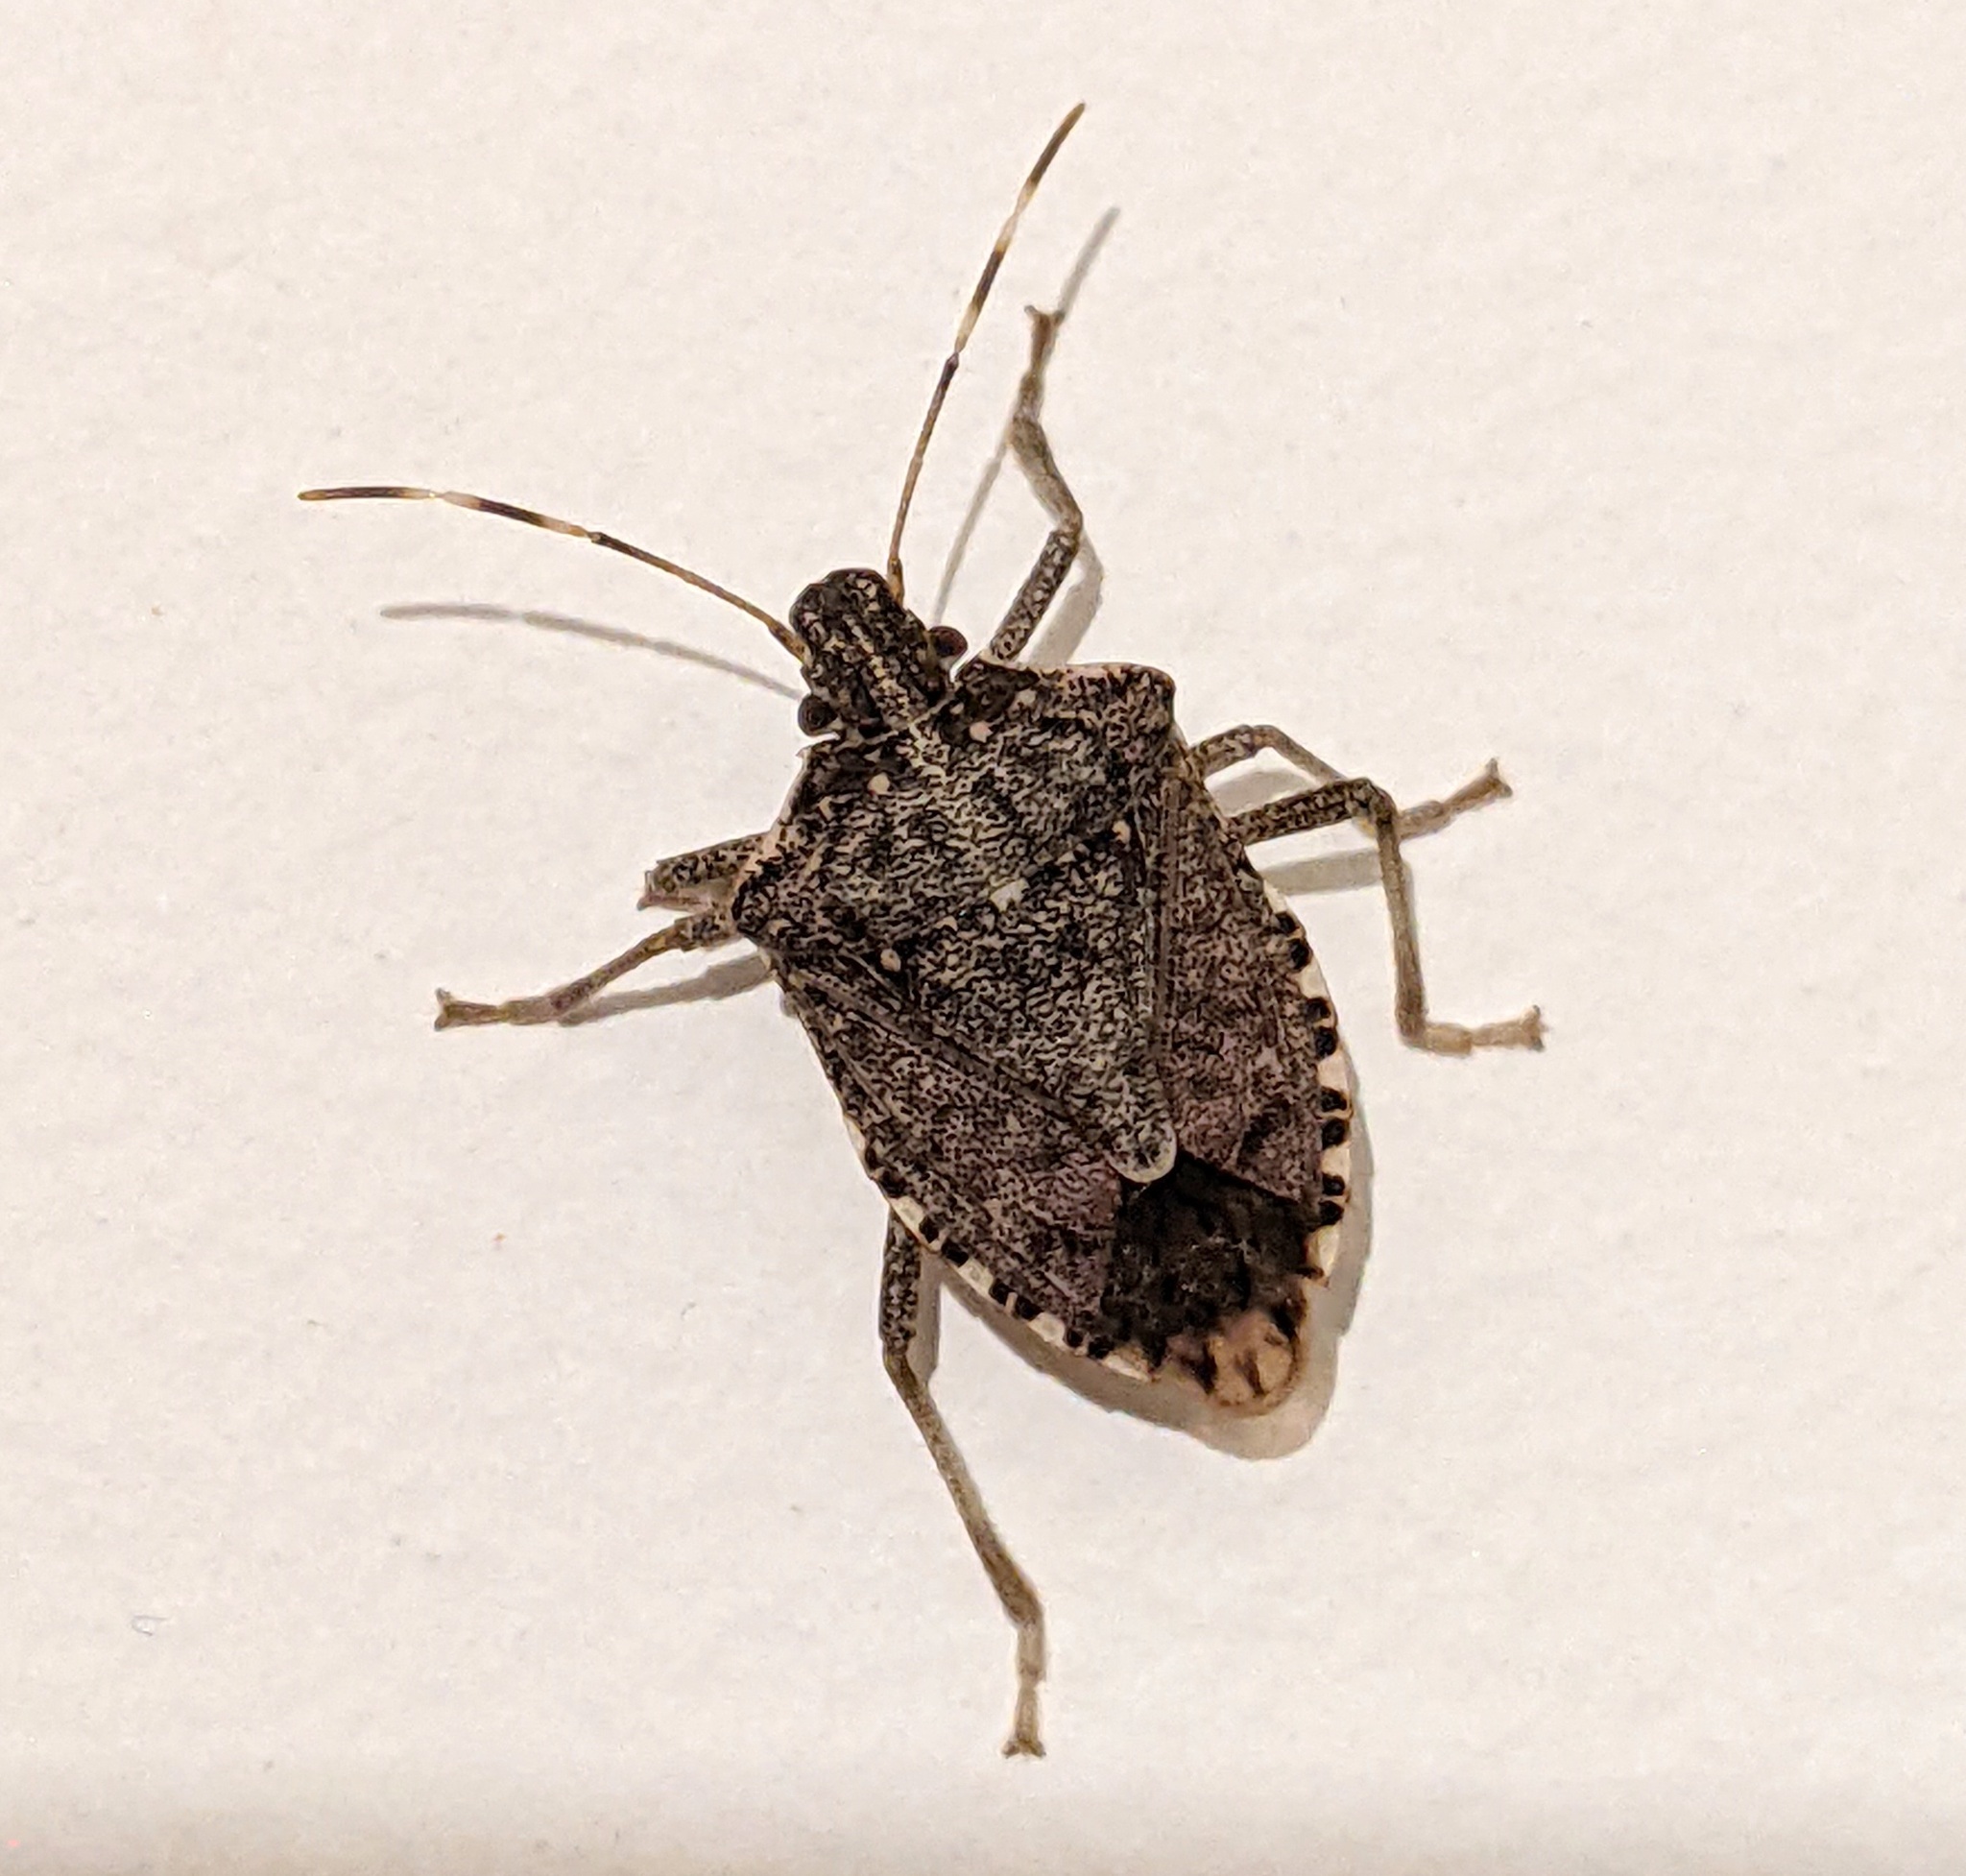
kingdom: Animalia
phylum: Arthropoda
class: Insecta
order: Hemiptera
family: Pentatomidae
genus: Halyomorpha
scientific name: Halyomorpha halys
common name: Brown marmorated stink bug
